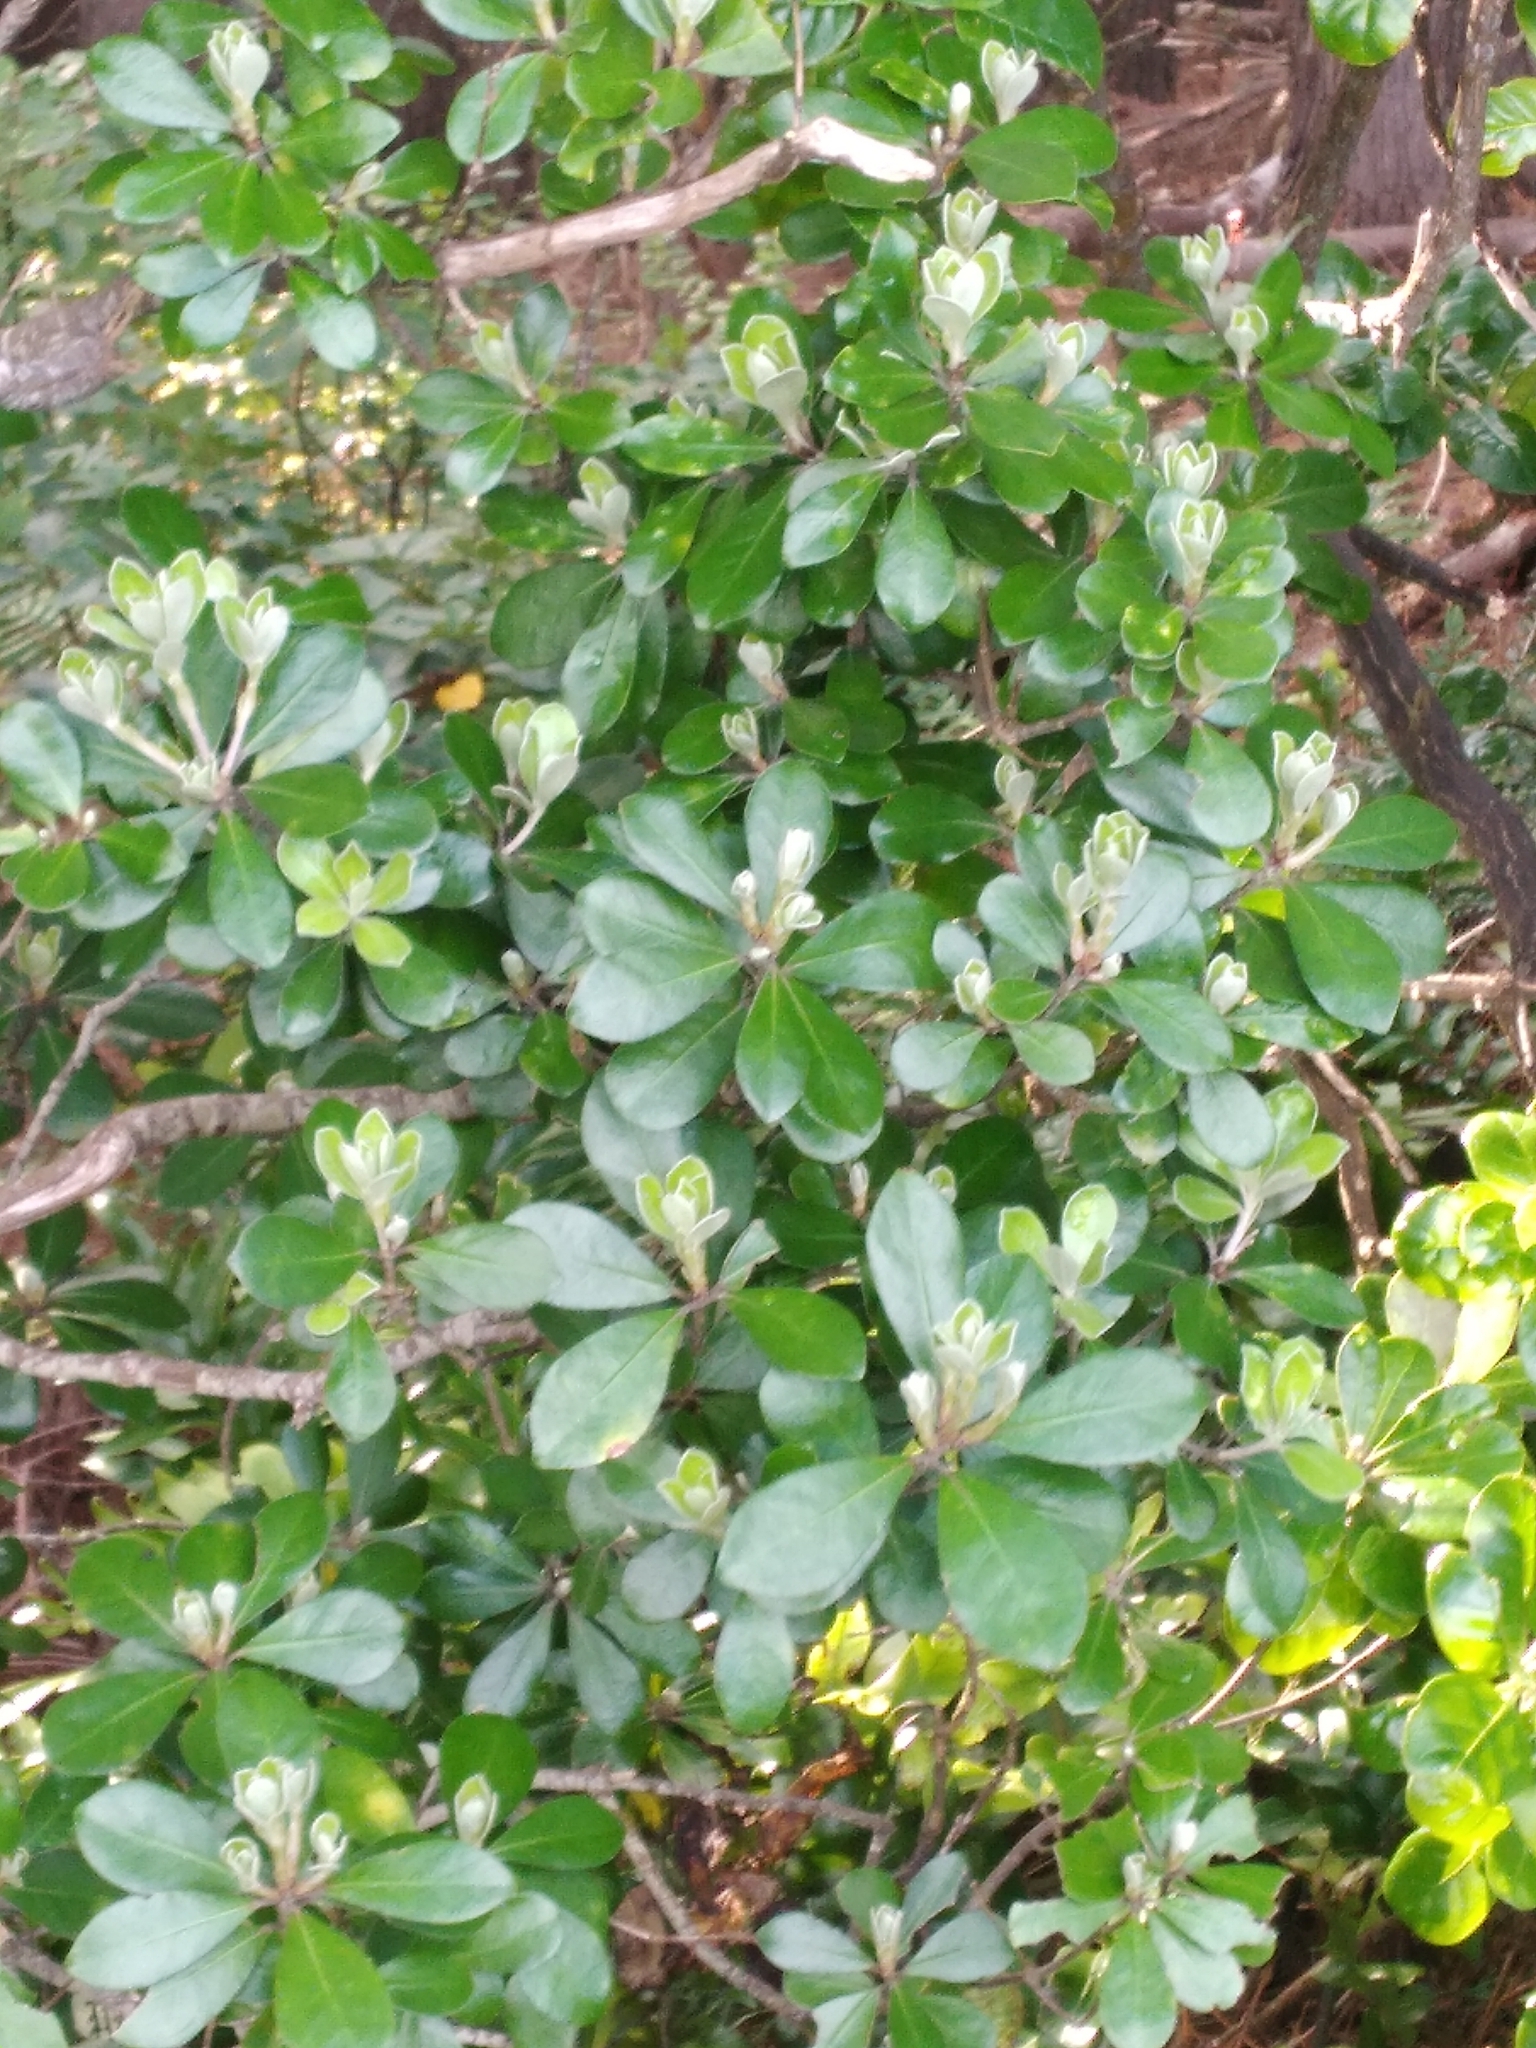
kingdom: Plantae
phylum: Tracheophyta
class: Magnoliopsida
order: Apiales
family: Pittosporaceae
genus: Pittosporum
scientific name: Pittosporum crassifolium
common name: Karo
